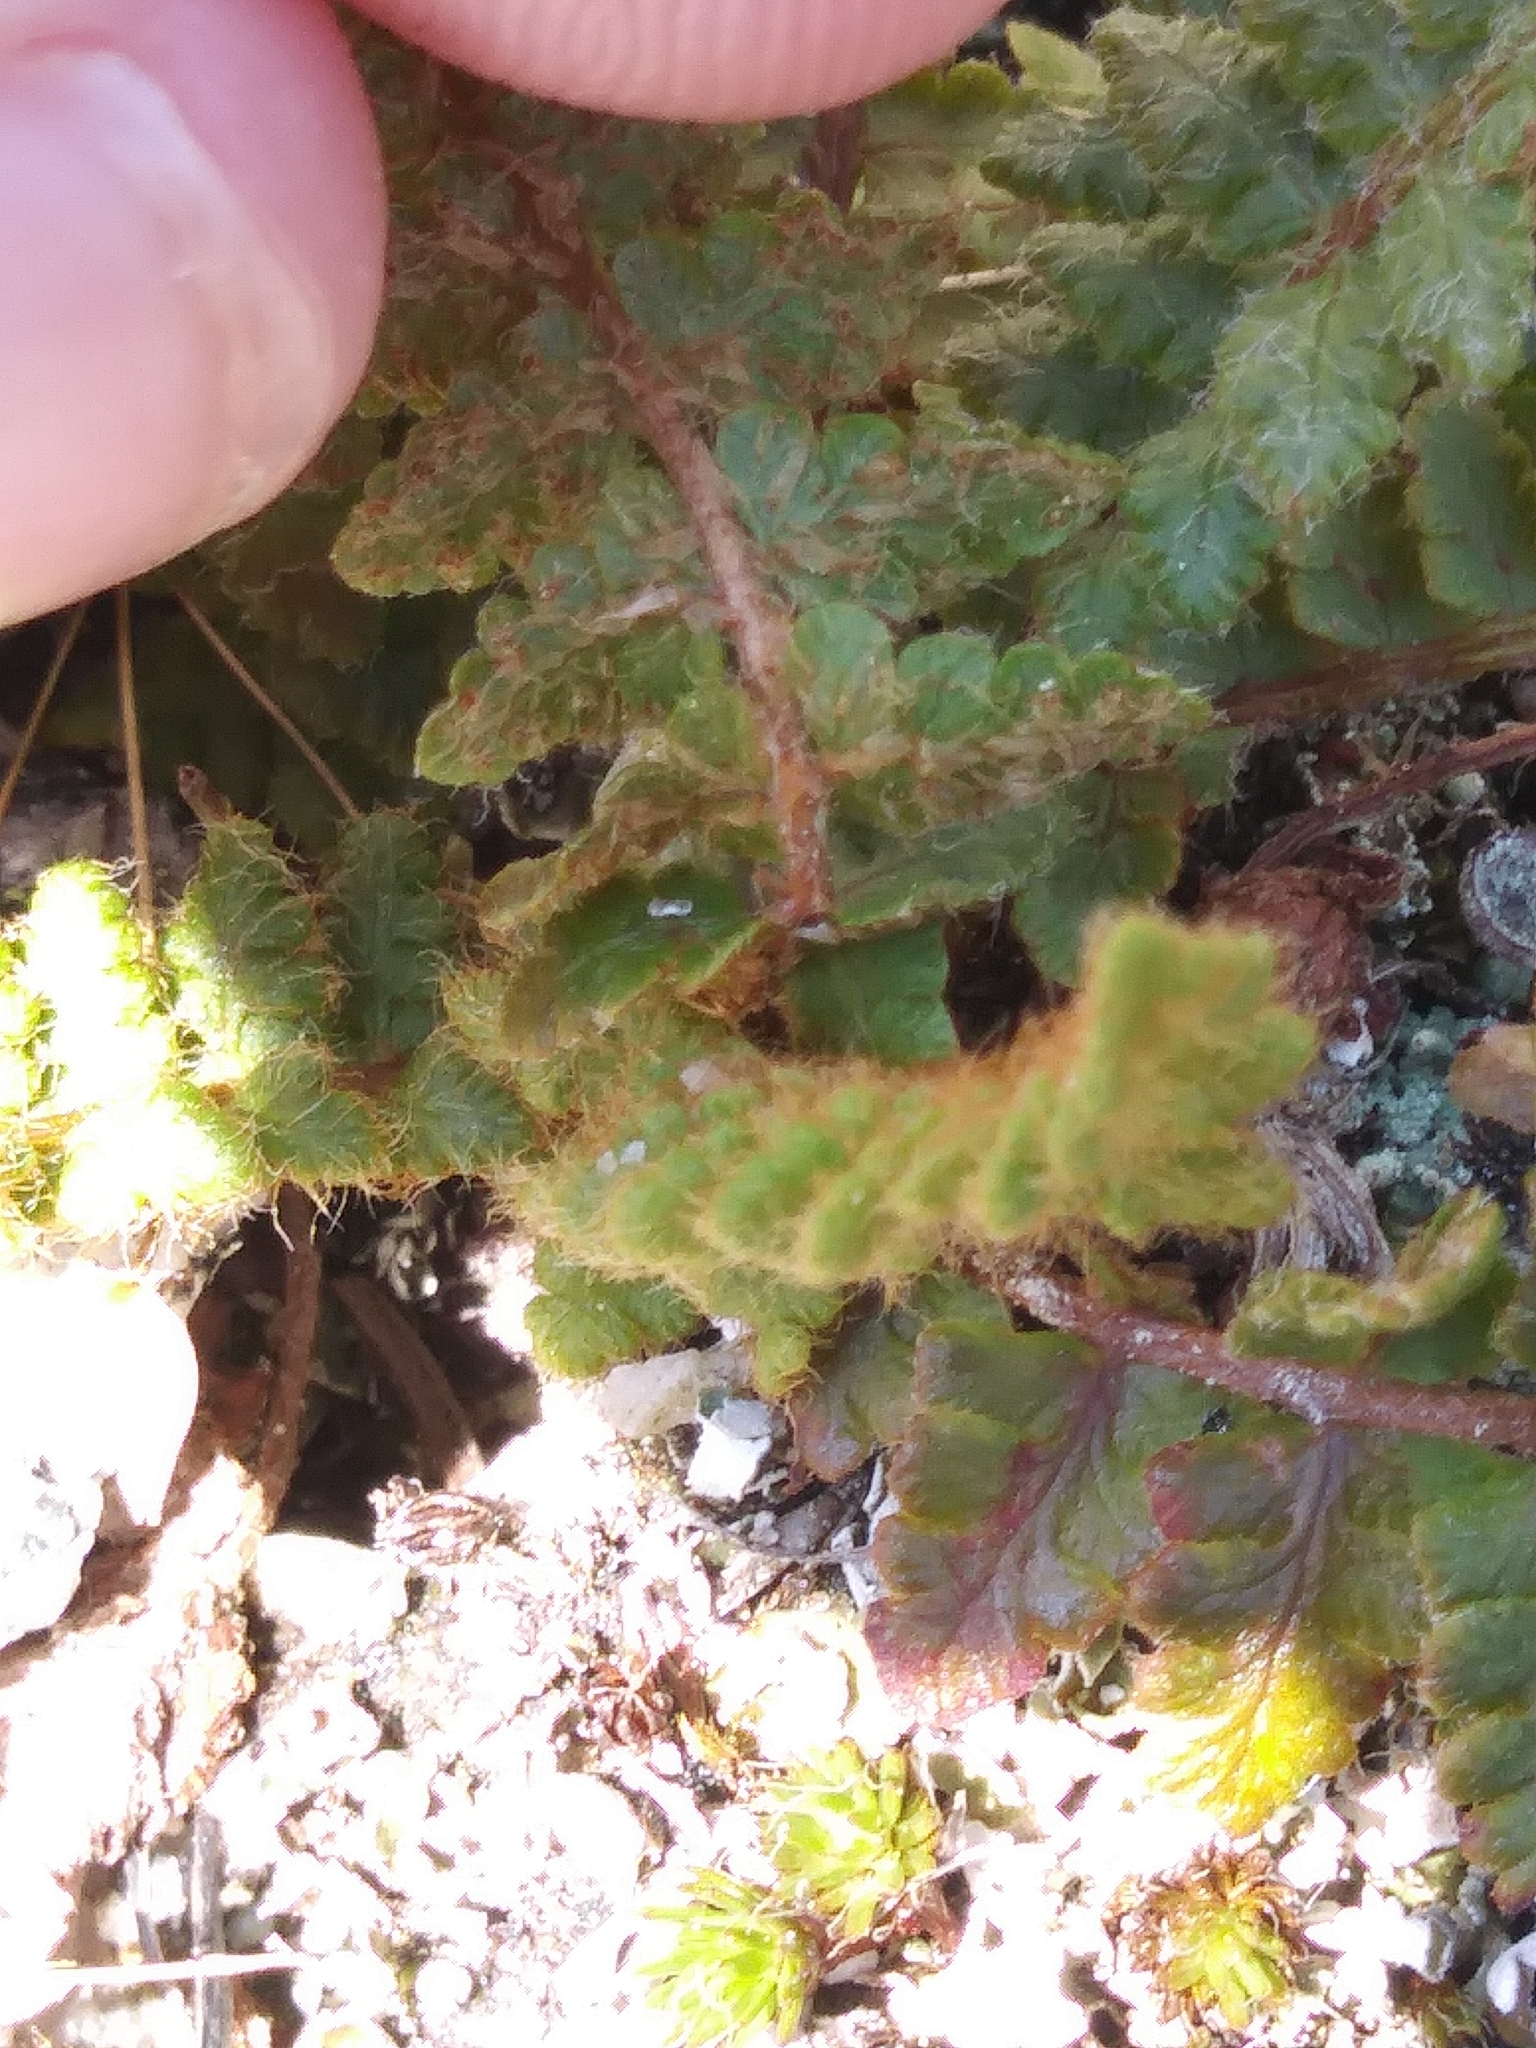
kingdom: Plantae
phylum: Tracheophyta
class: Polypodiopsida
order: Polypodiales
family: Woodsiaceae
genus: Woodsia
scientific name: Woodsia ilvensis
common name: Fragrant woodsia
